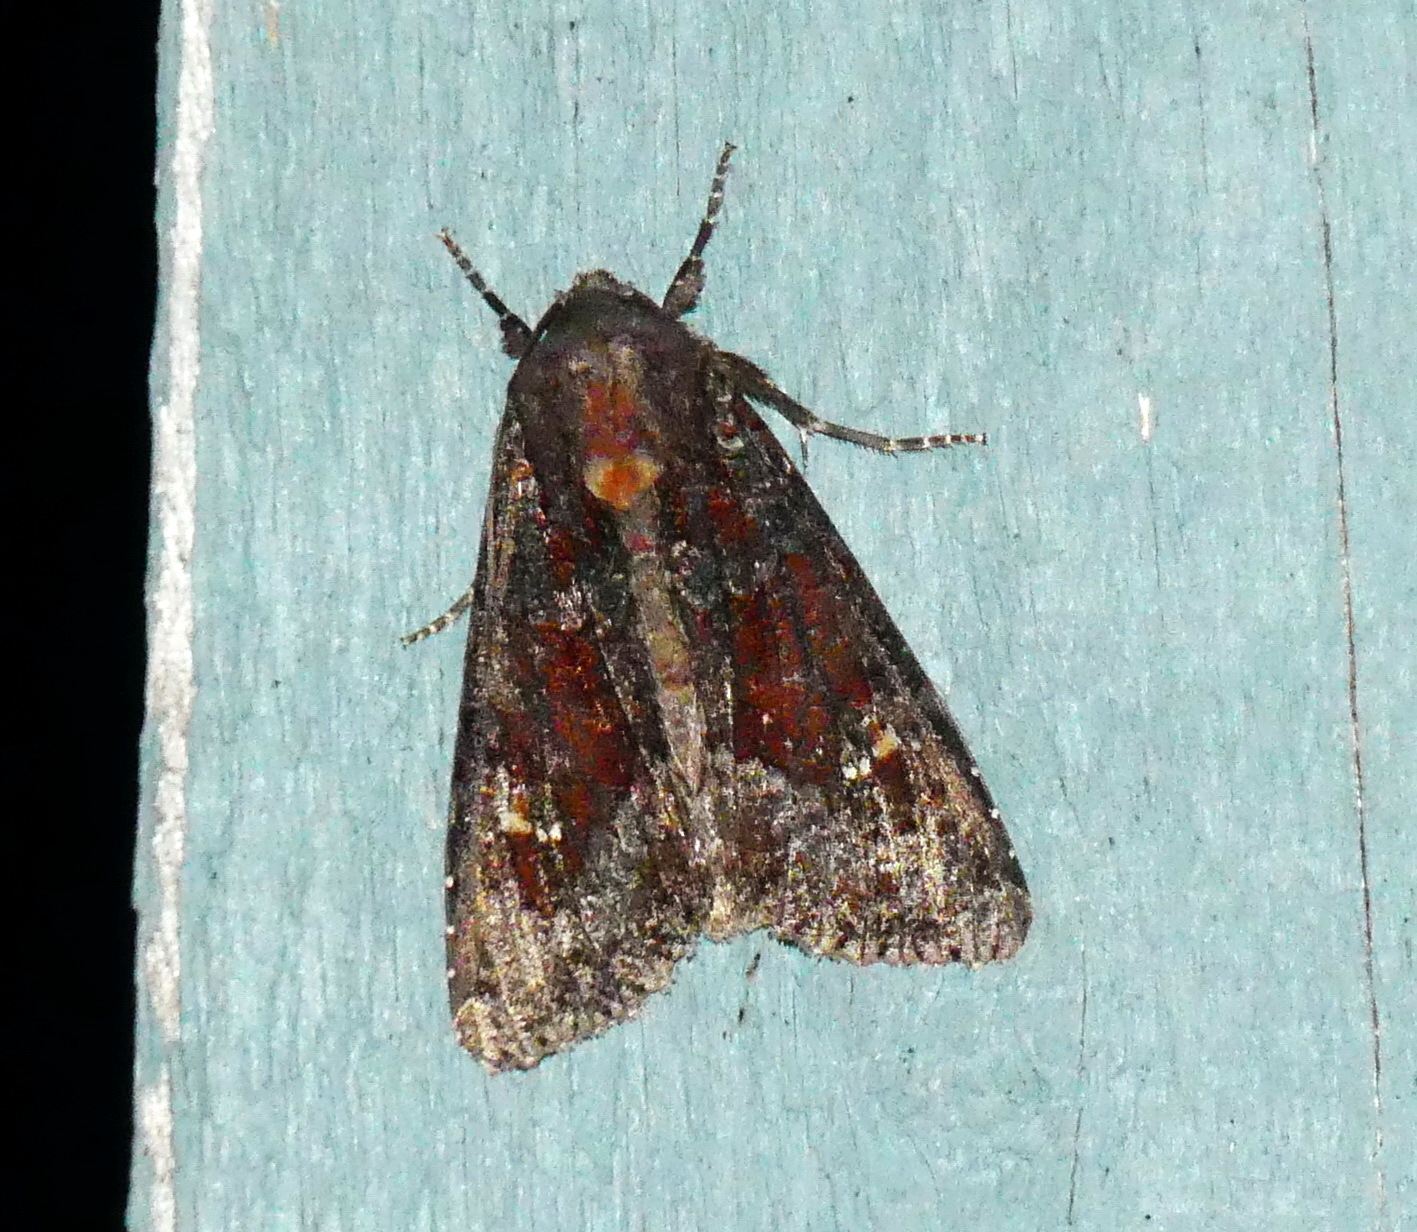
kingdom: Animalia
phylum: Arthropoda
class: Insecta
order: Lepidoptera
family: Noctuidae
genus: Apamea
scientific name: Apamea amputatrix
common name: Yellow-headed cutworm moth
